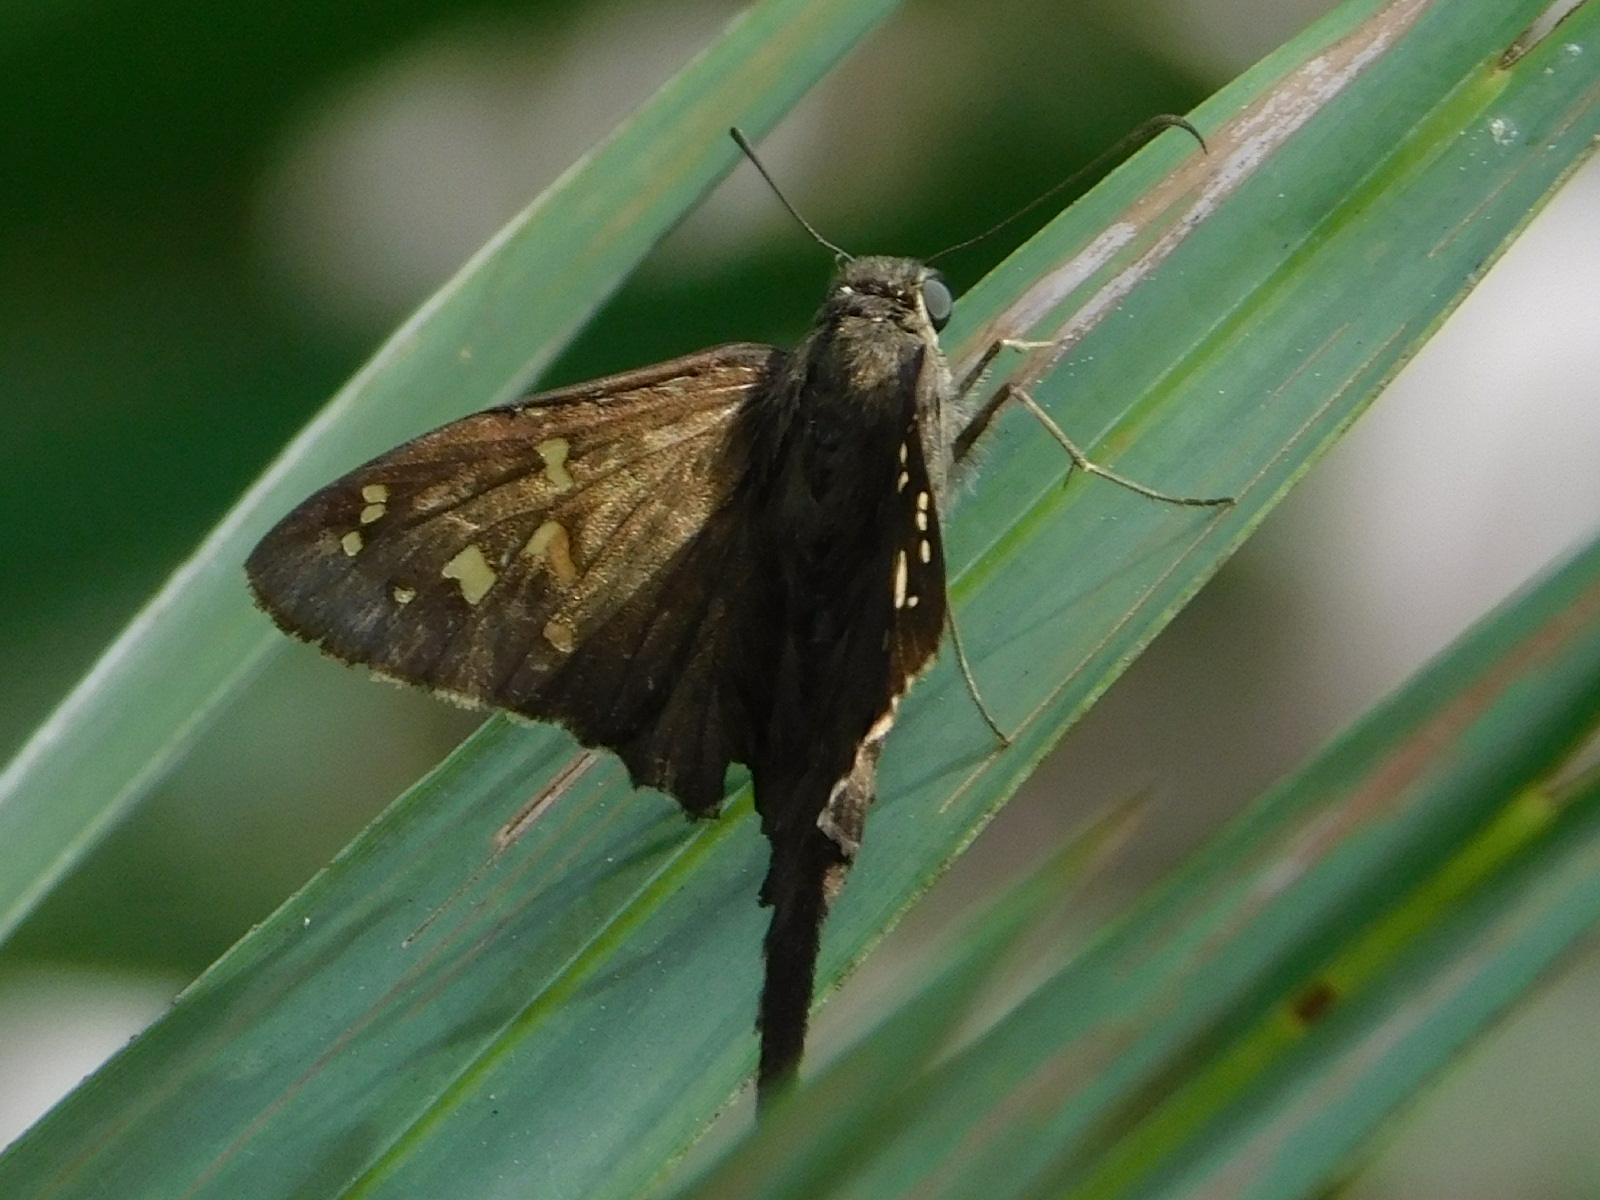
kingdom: Animalia
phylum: Arthropoda
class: Insecta
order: Lepidoptera
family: Hesperiidae
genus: Thorybes
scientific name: Thorybes
